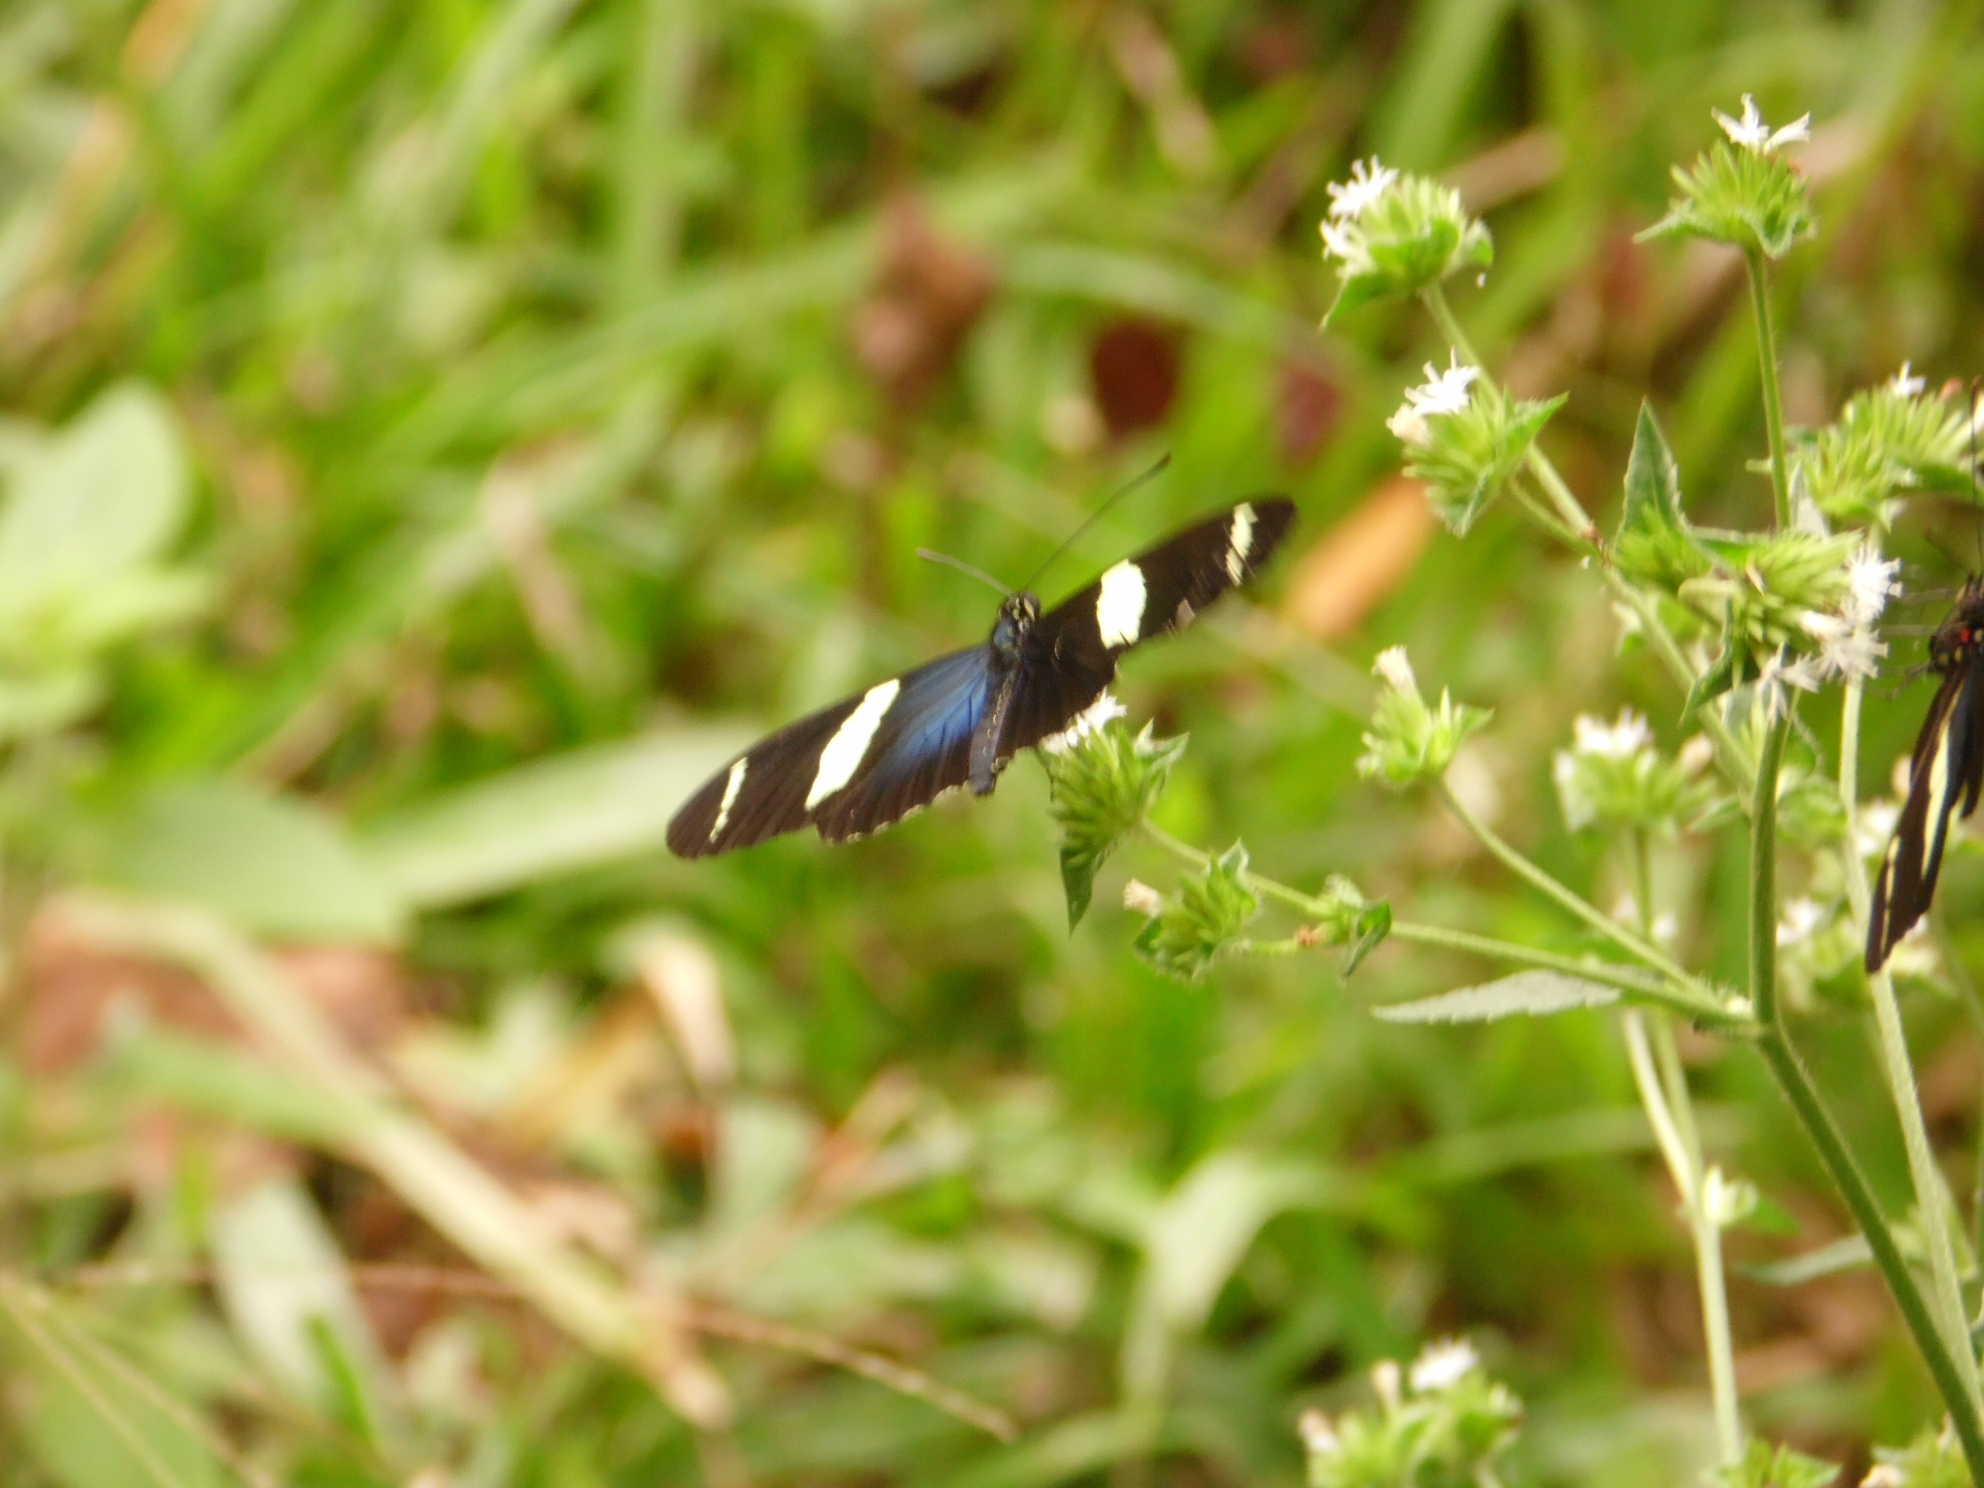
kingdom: Animalia
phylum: Arthropoda
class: Insecta
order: Lepidoptera
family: Nymphalidae
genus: Heliconius
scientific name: Heliconius sara
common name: Sara longwing
